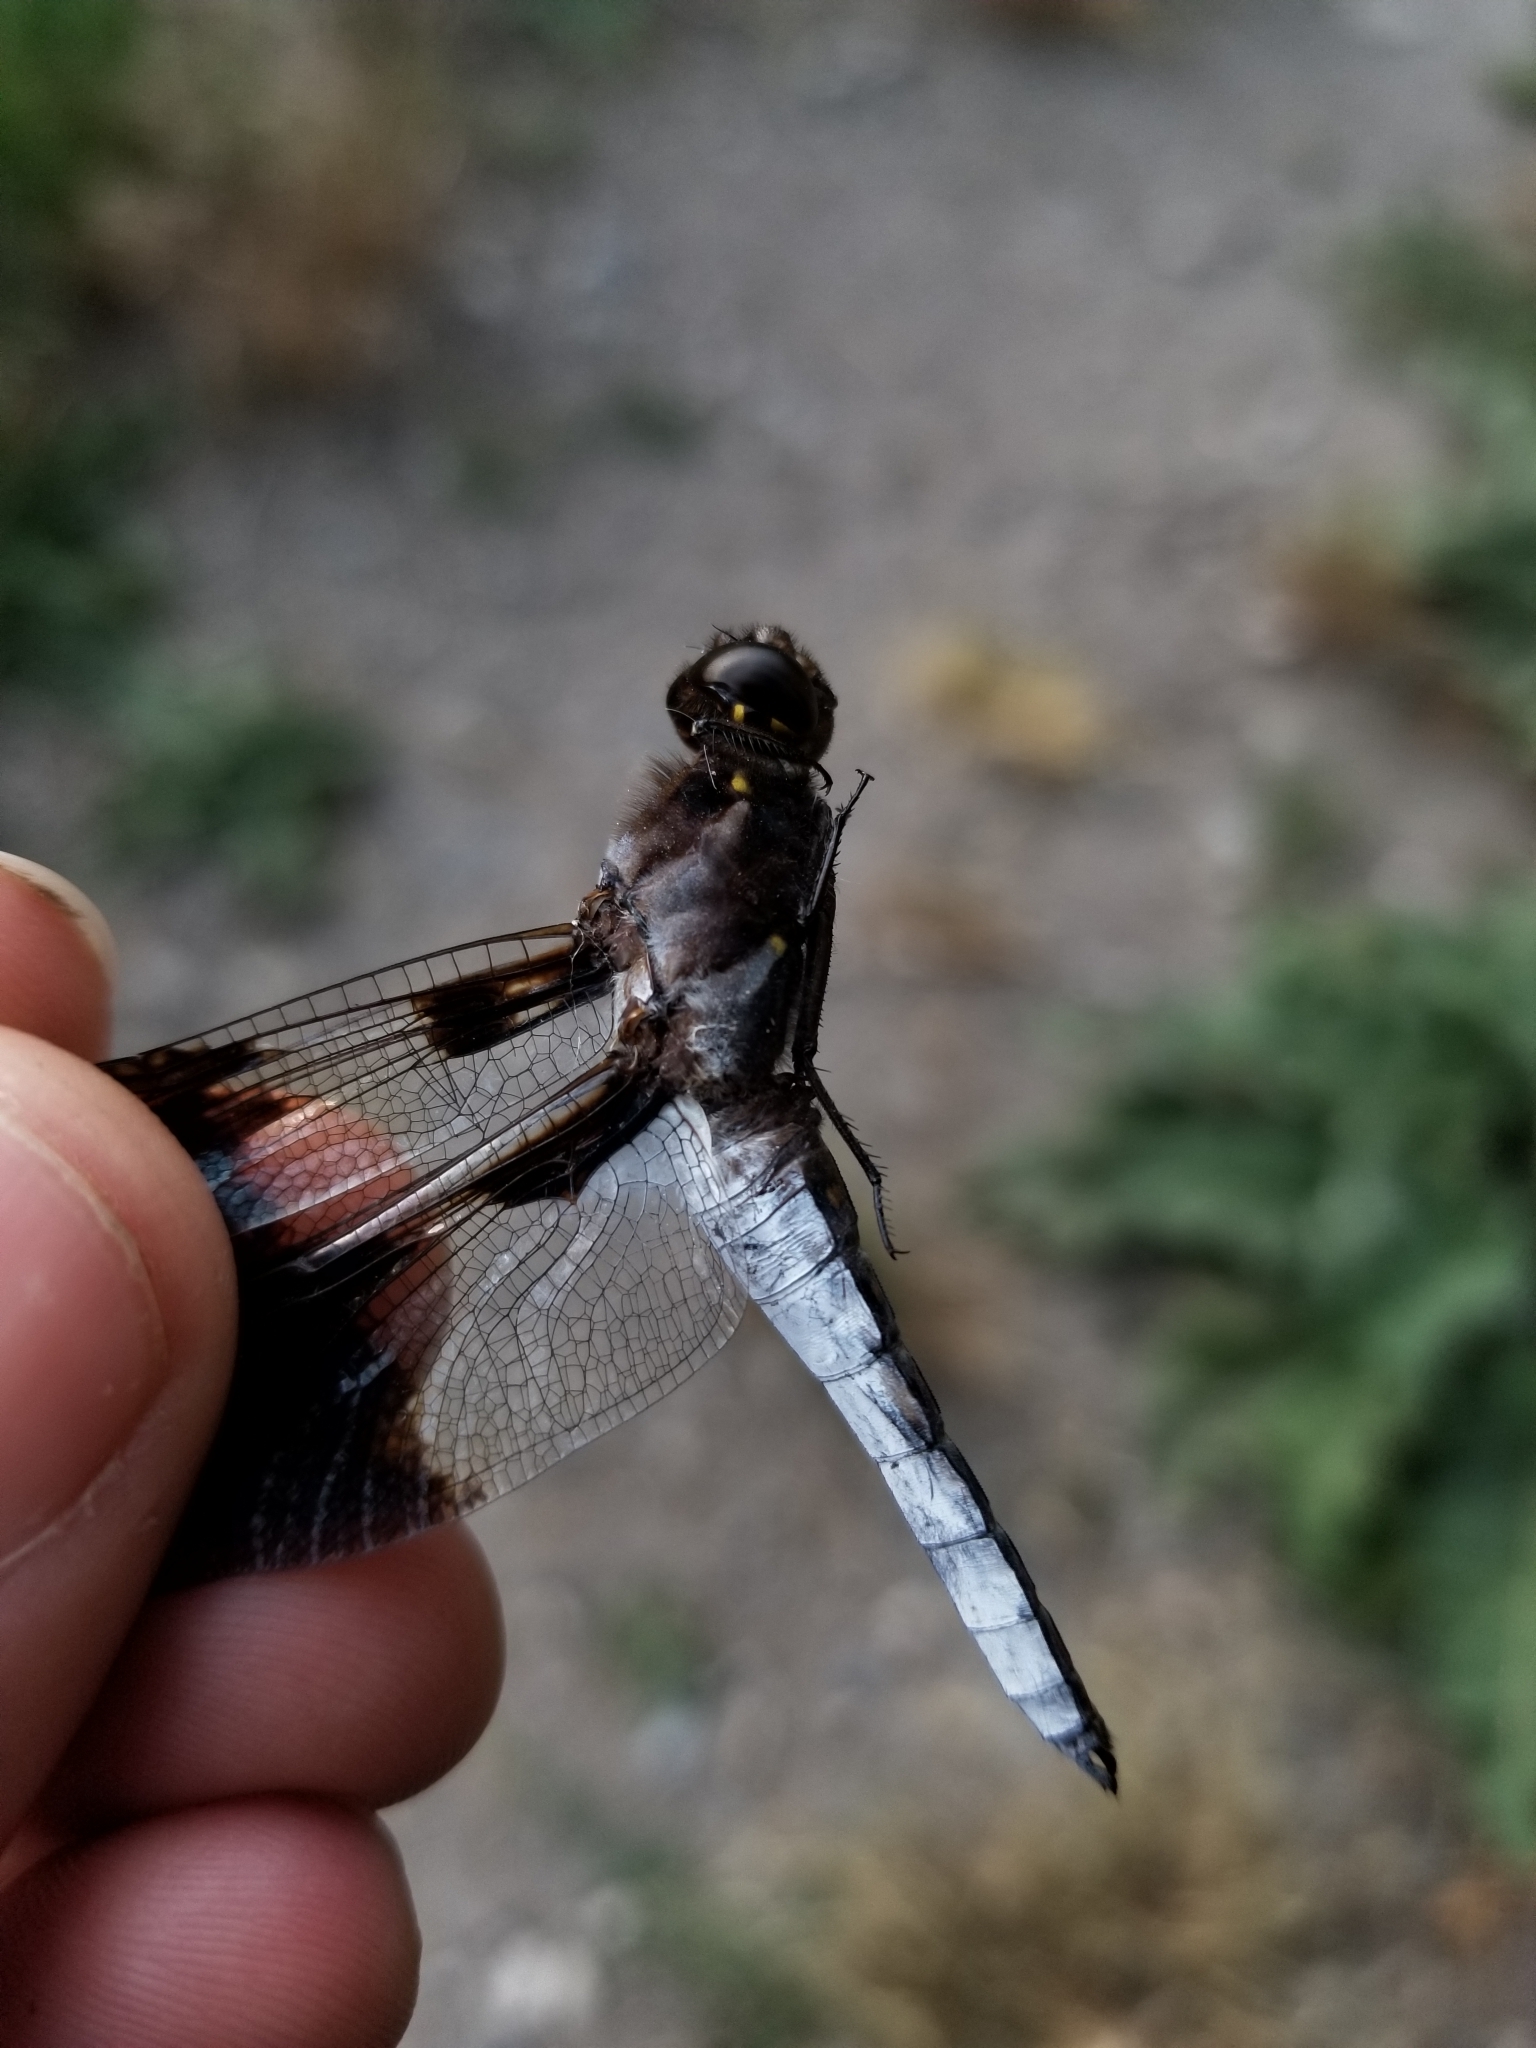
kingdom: Animalia
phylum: Arthropoda
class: Insecta
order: Odonata
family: Libellulidae
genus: Plathemis
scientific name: Plathemis lydia
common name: Common whitetail
